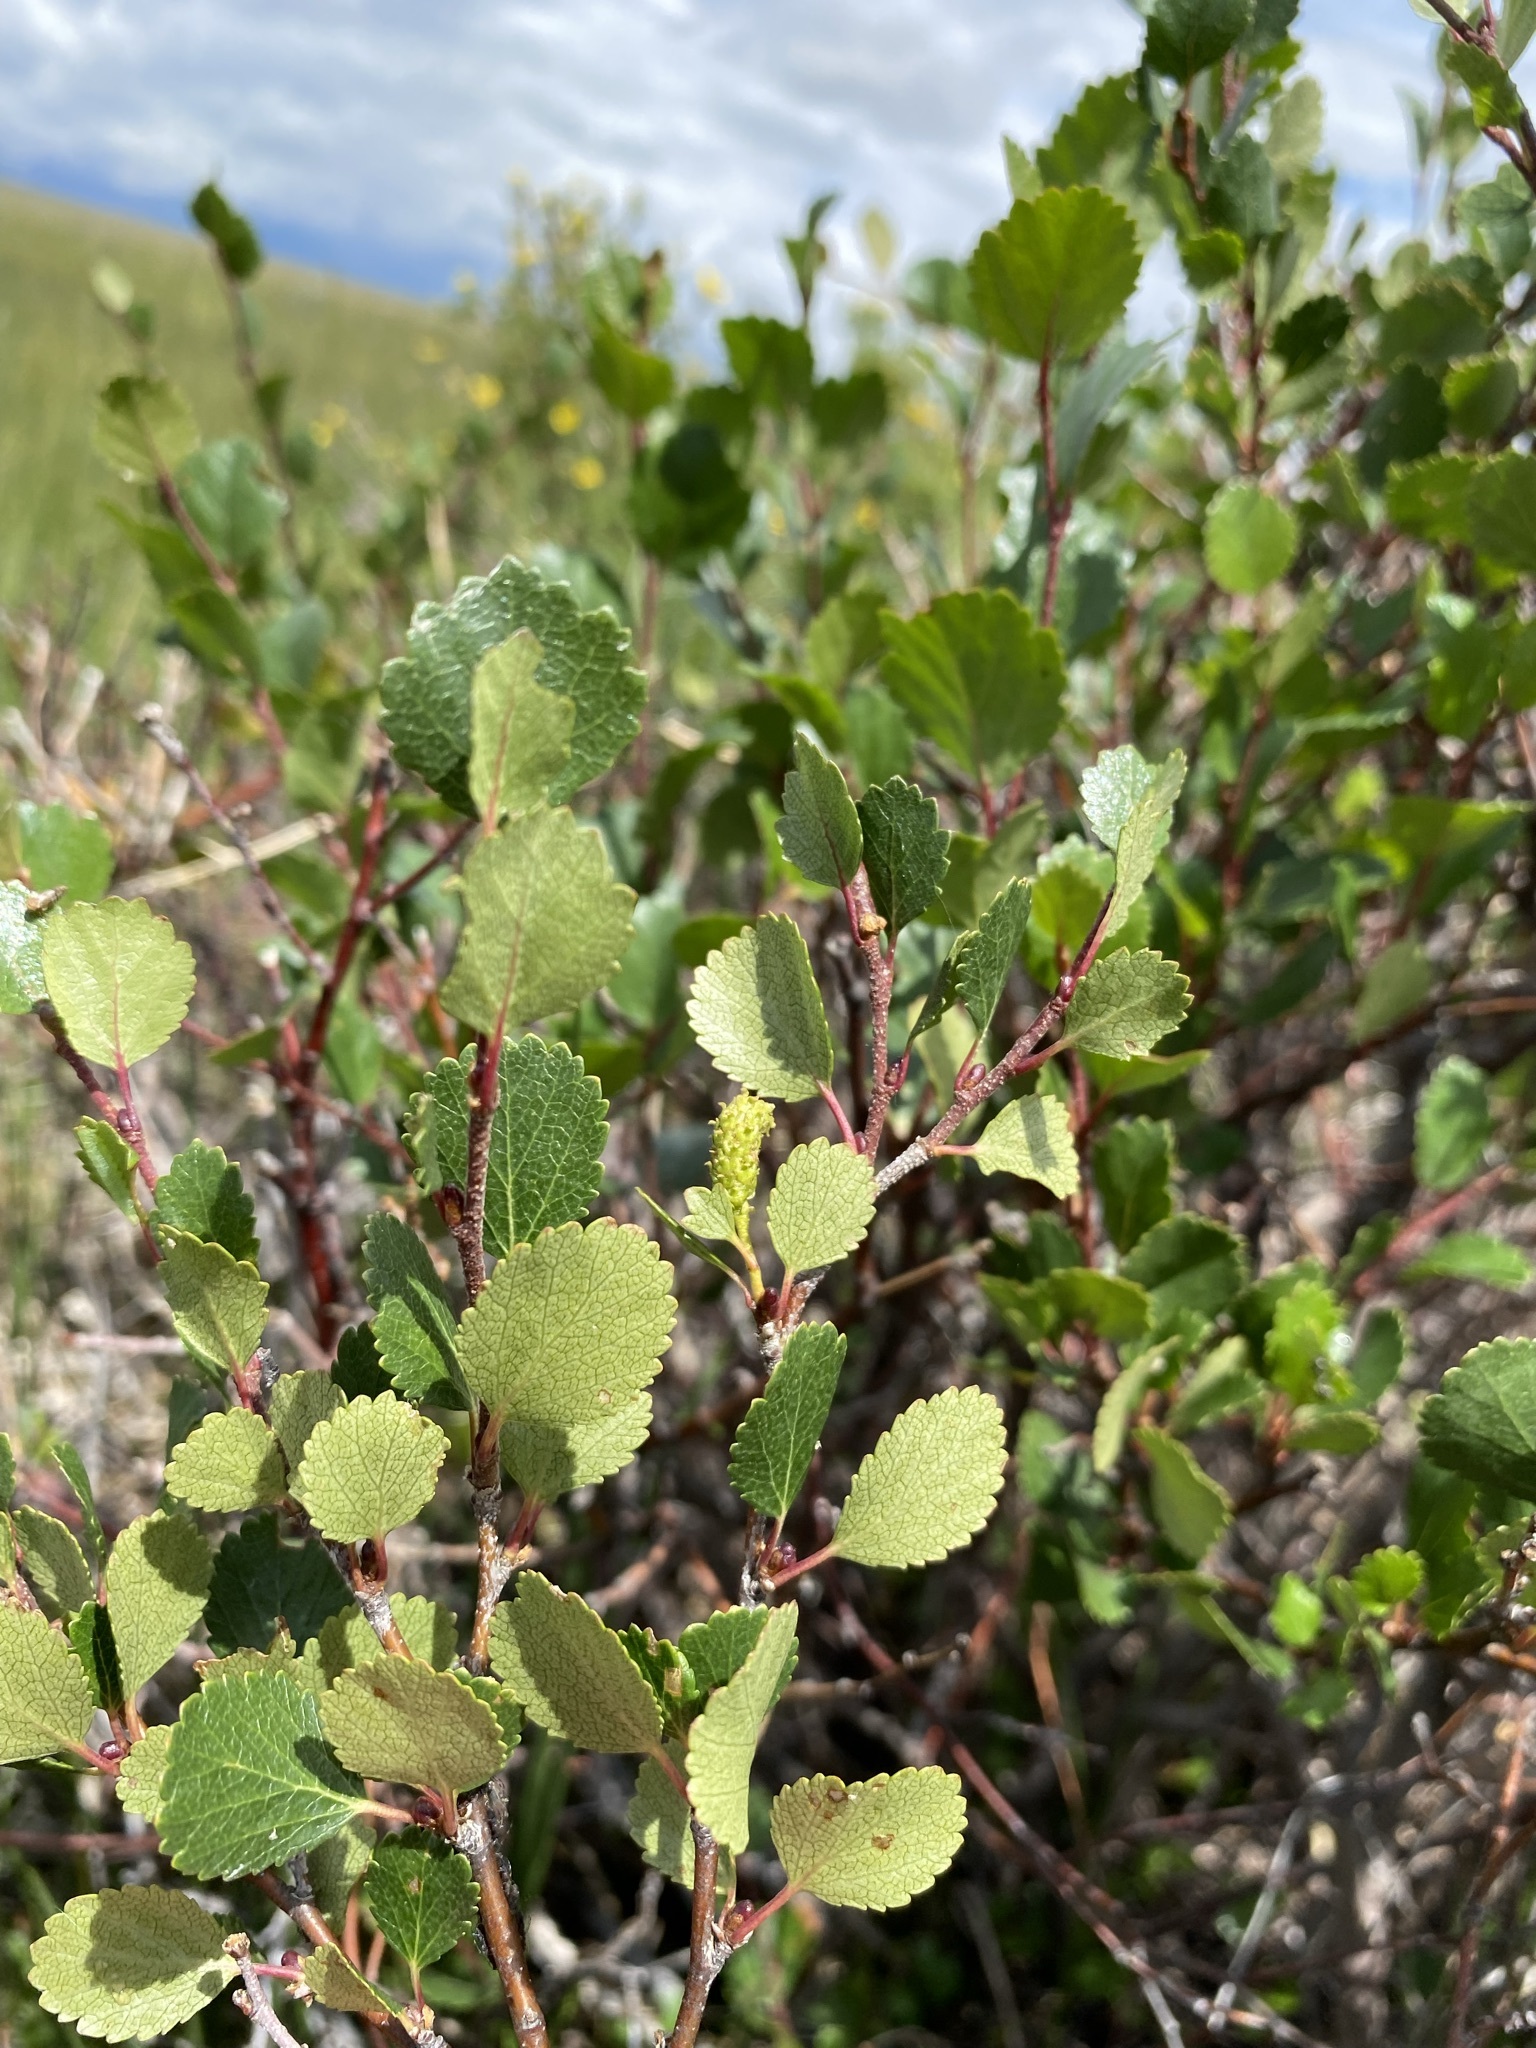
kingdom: Plantae
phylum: Tracheophyta
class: Magnoliopsida
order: Fagales
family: Betulaceae
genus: Betula
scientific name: Betula glandulosa
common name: Dwarf birch
